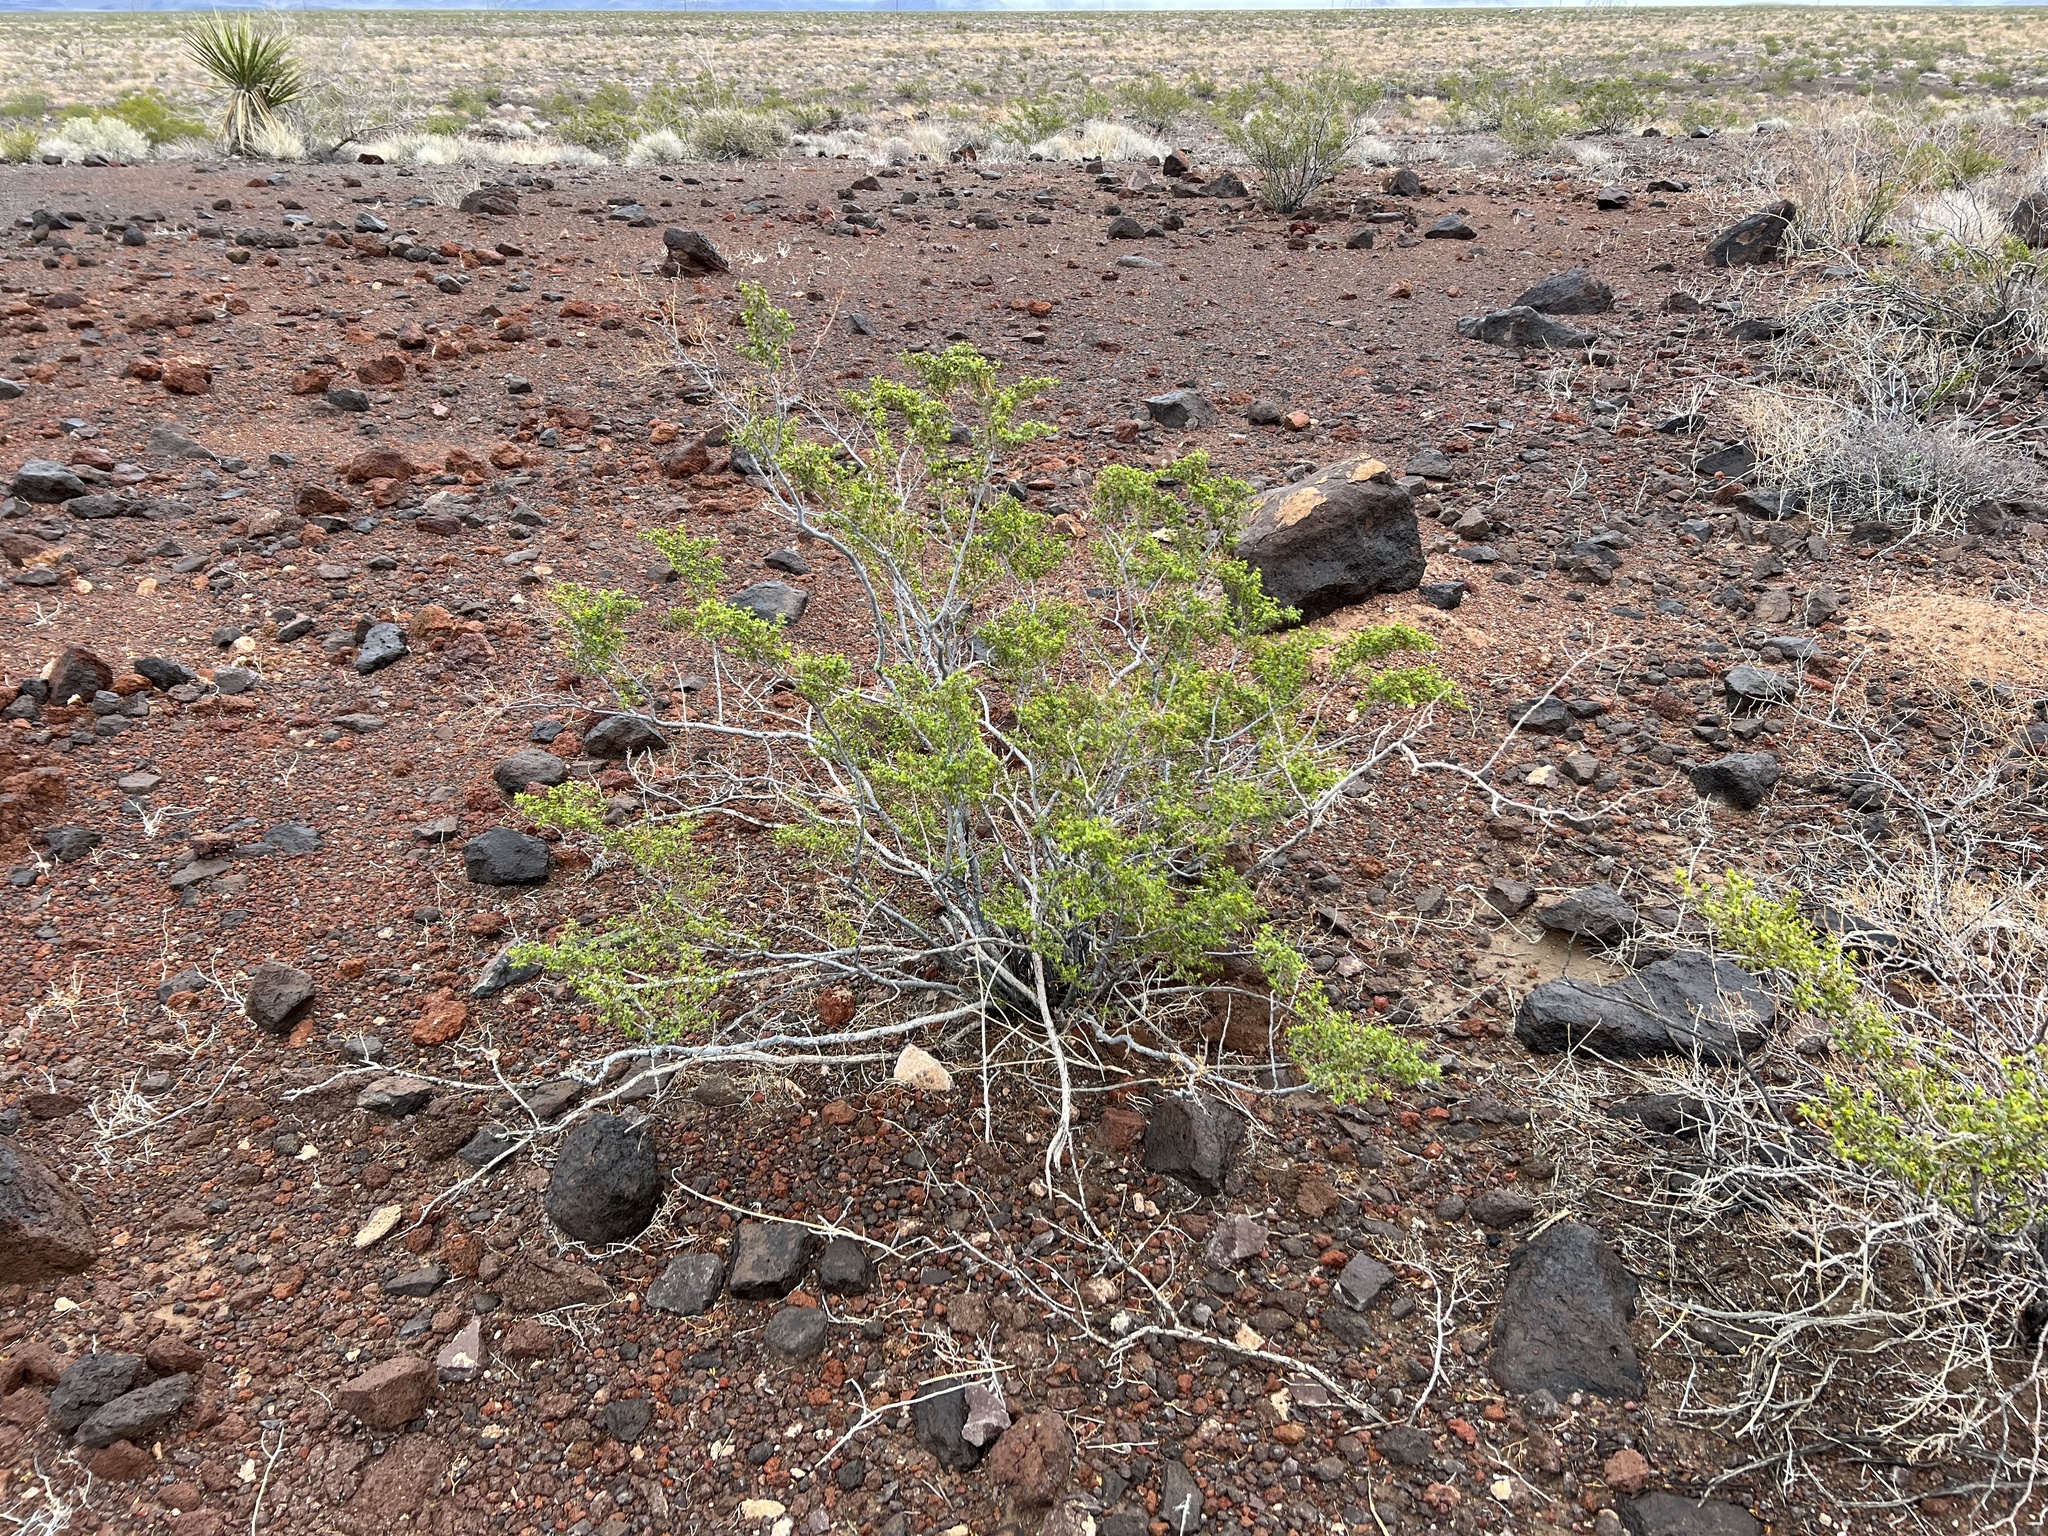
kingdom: Plantae
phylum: Tracheophyta
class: Magnoliopsida
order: Zygophyllales
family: Zygophyllaceae
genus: Larrea
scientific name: Larrea tridentata
